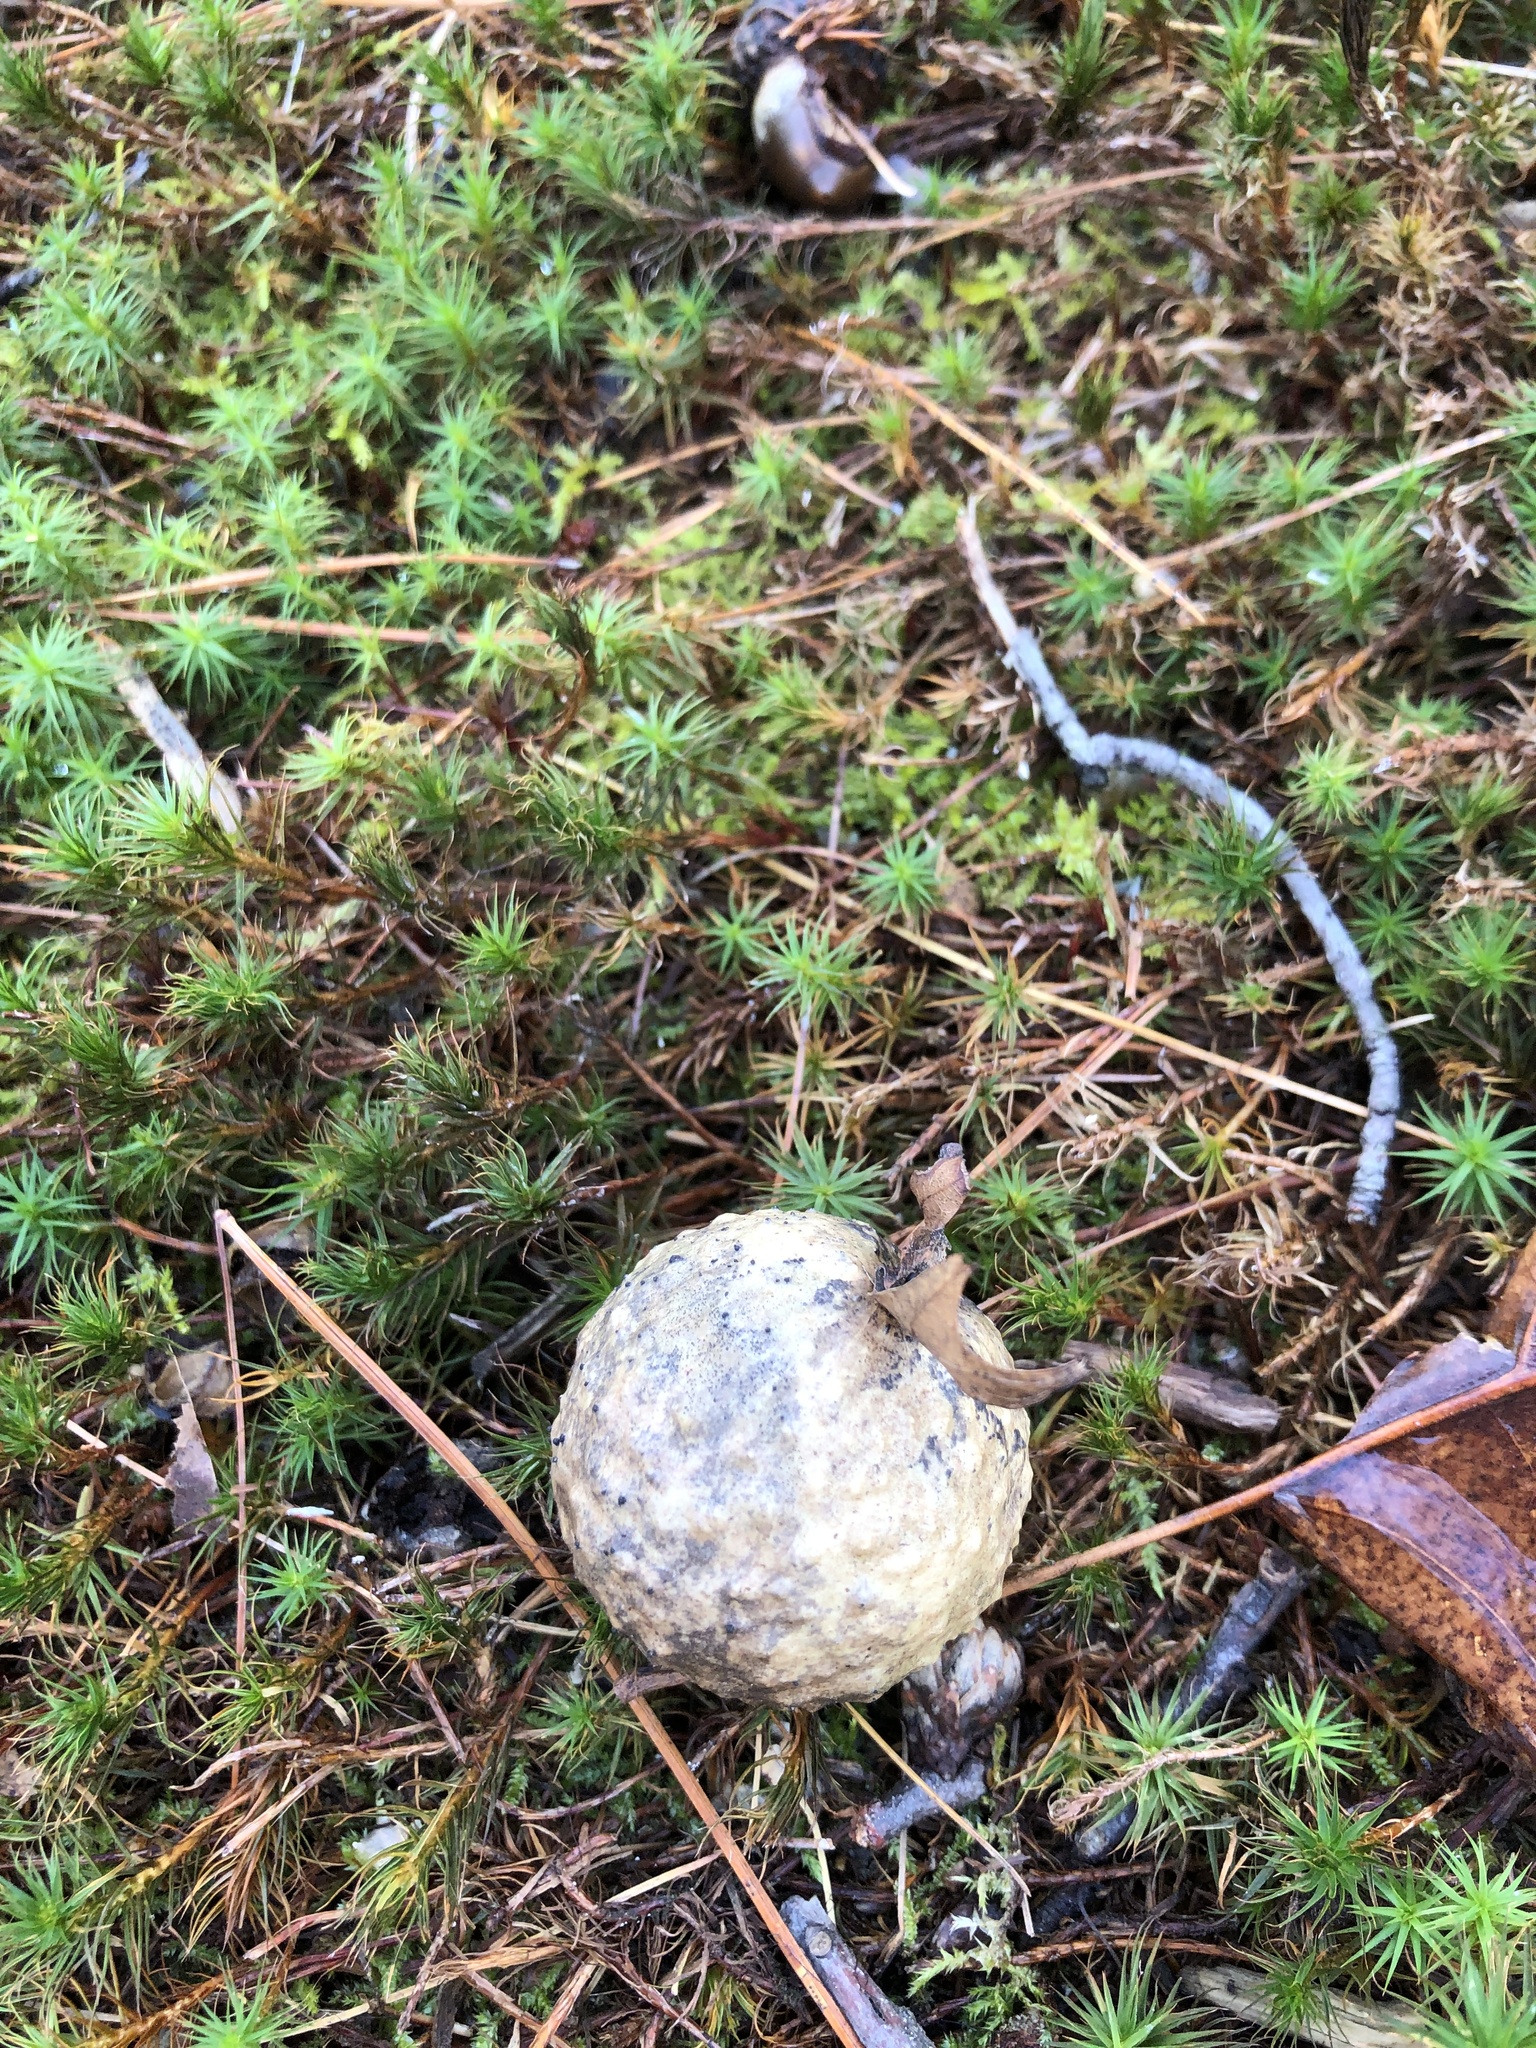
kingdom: Animalia
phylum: Arthropoda
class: Insecta
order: Hymenoptera
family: Cynipidae
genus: Amphibolips
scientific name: Amphibolips
